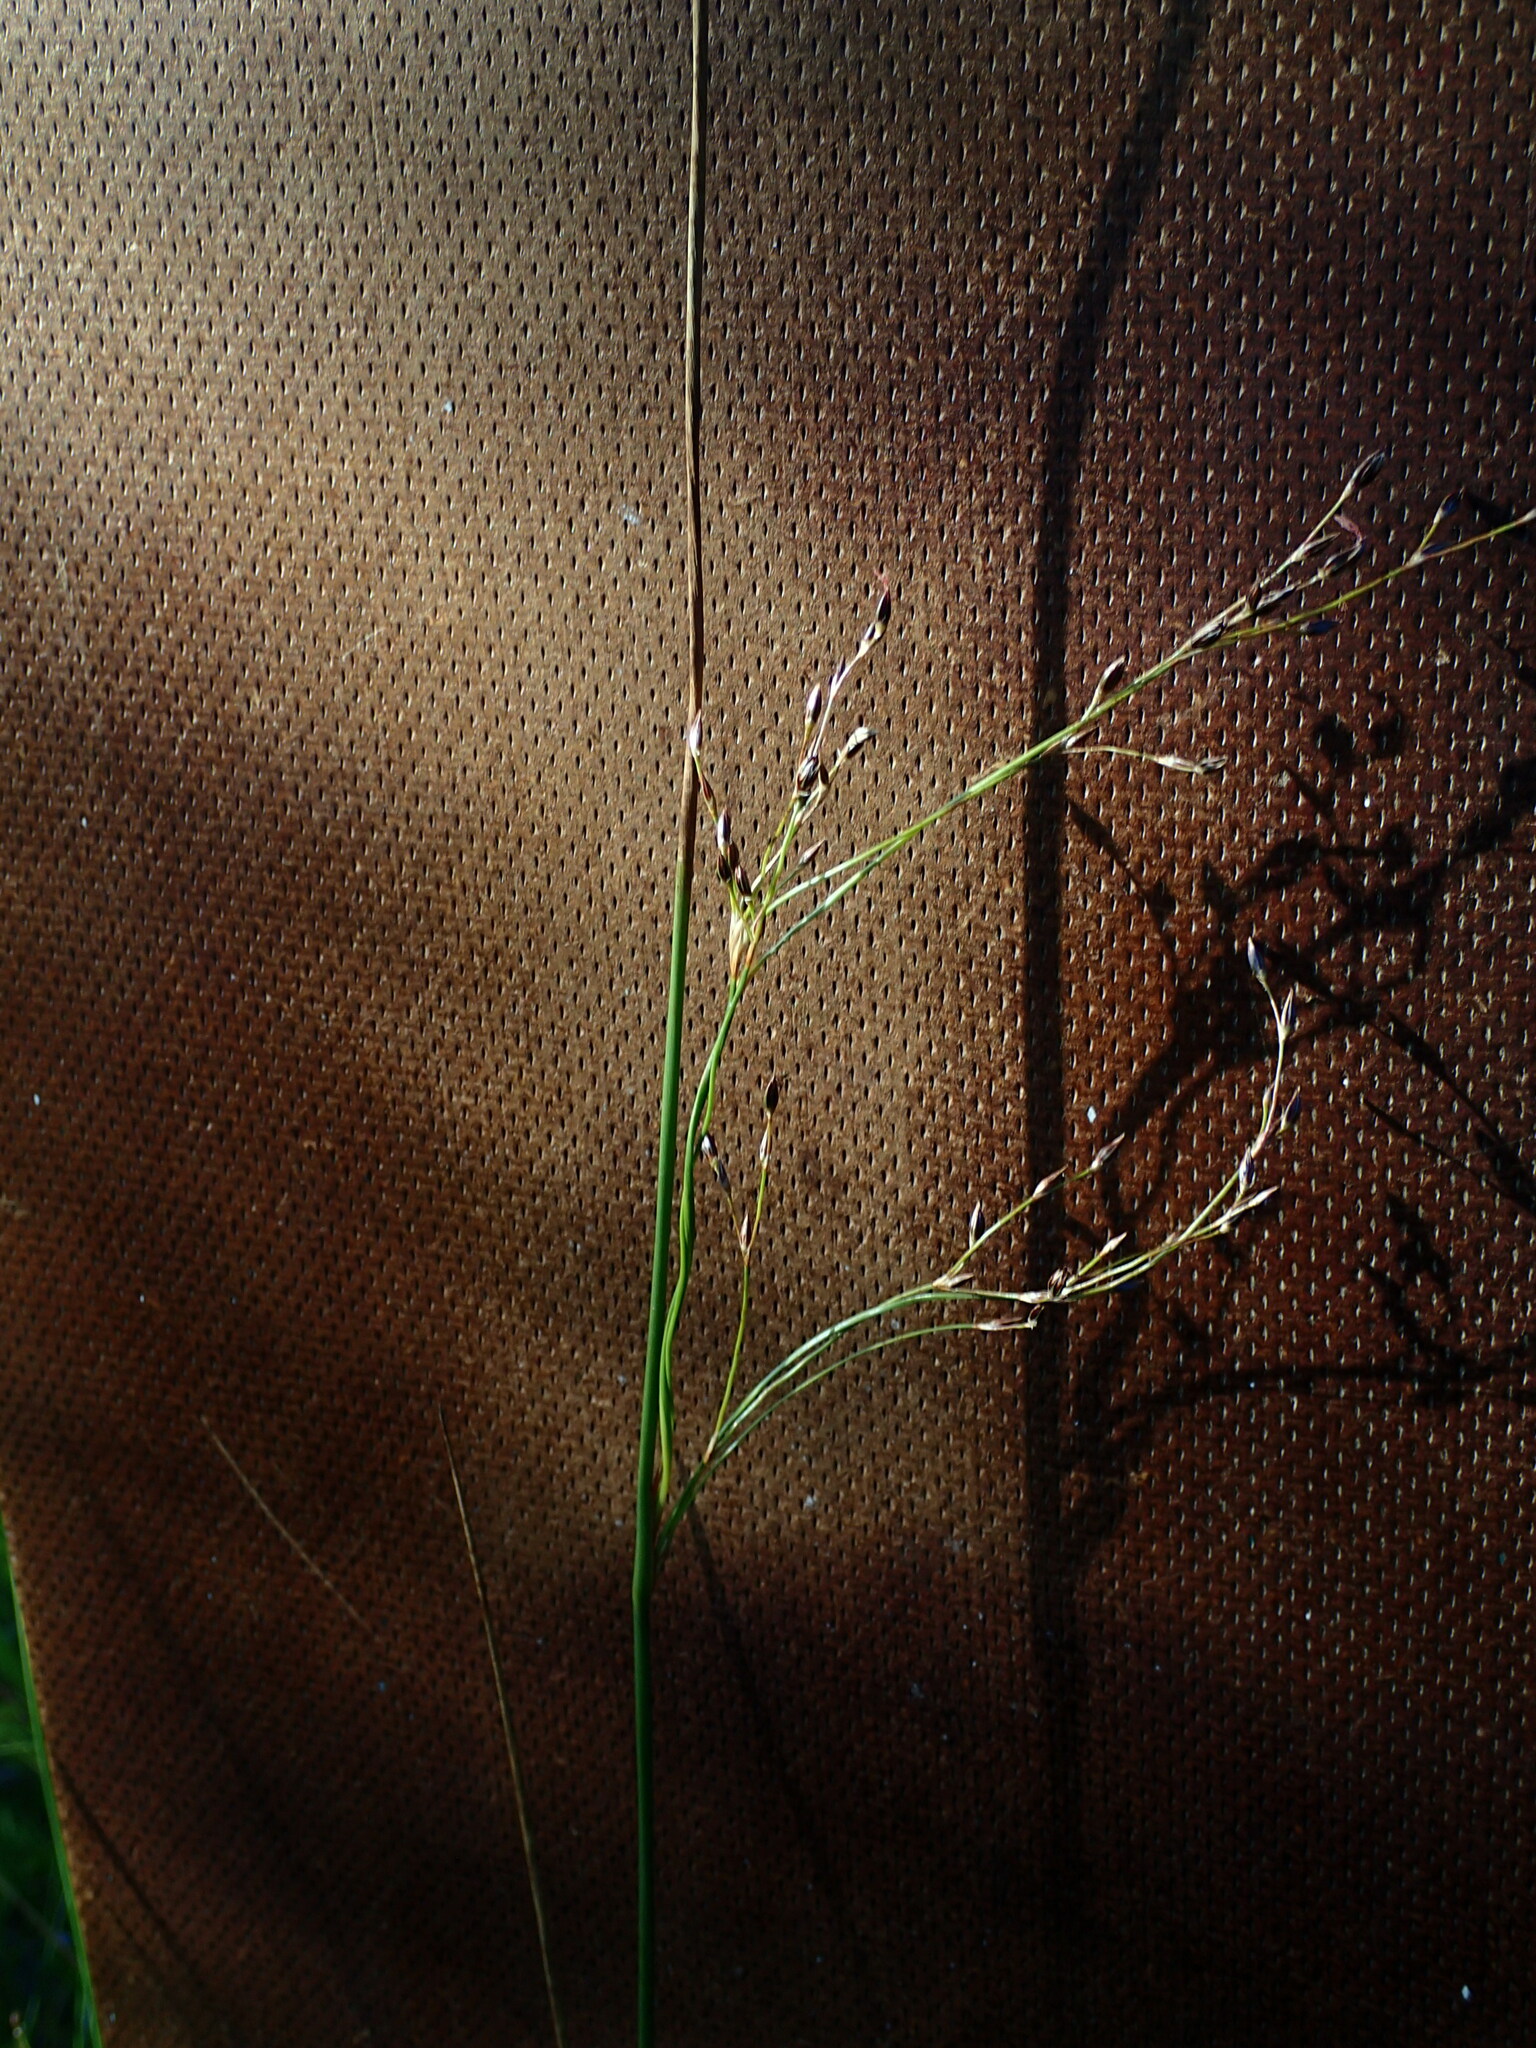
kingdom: Plantae
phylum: Tracheophyta
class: Liliopsida
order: Poales
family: Juncaceae
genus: Juncus
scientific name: Juncus balticus
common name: Baltic rush
